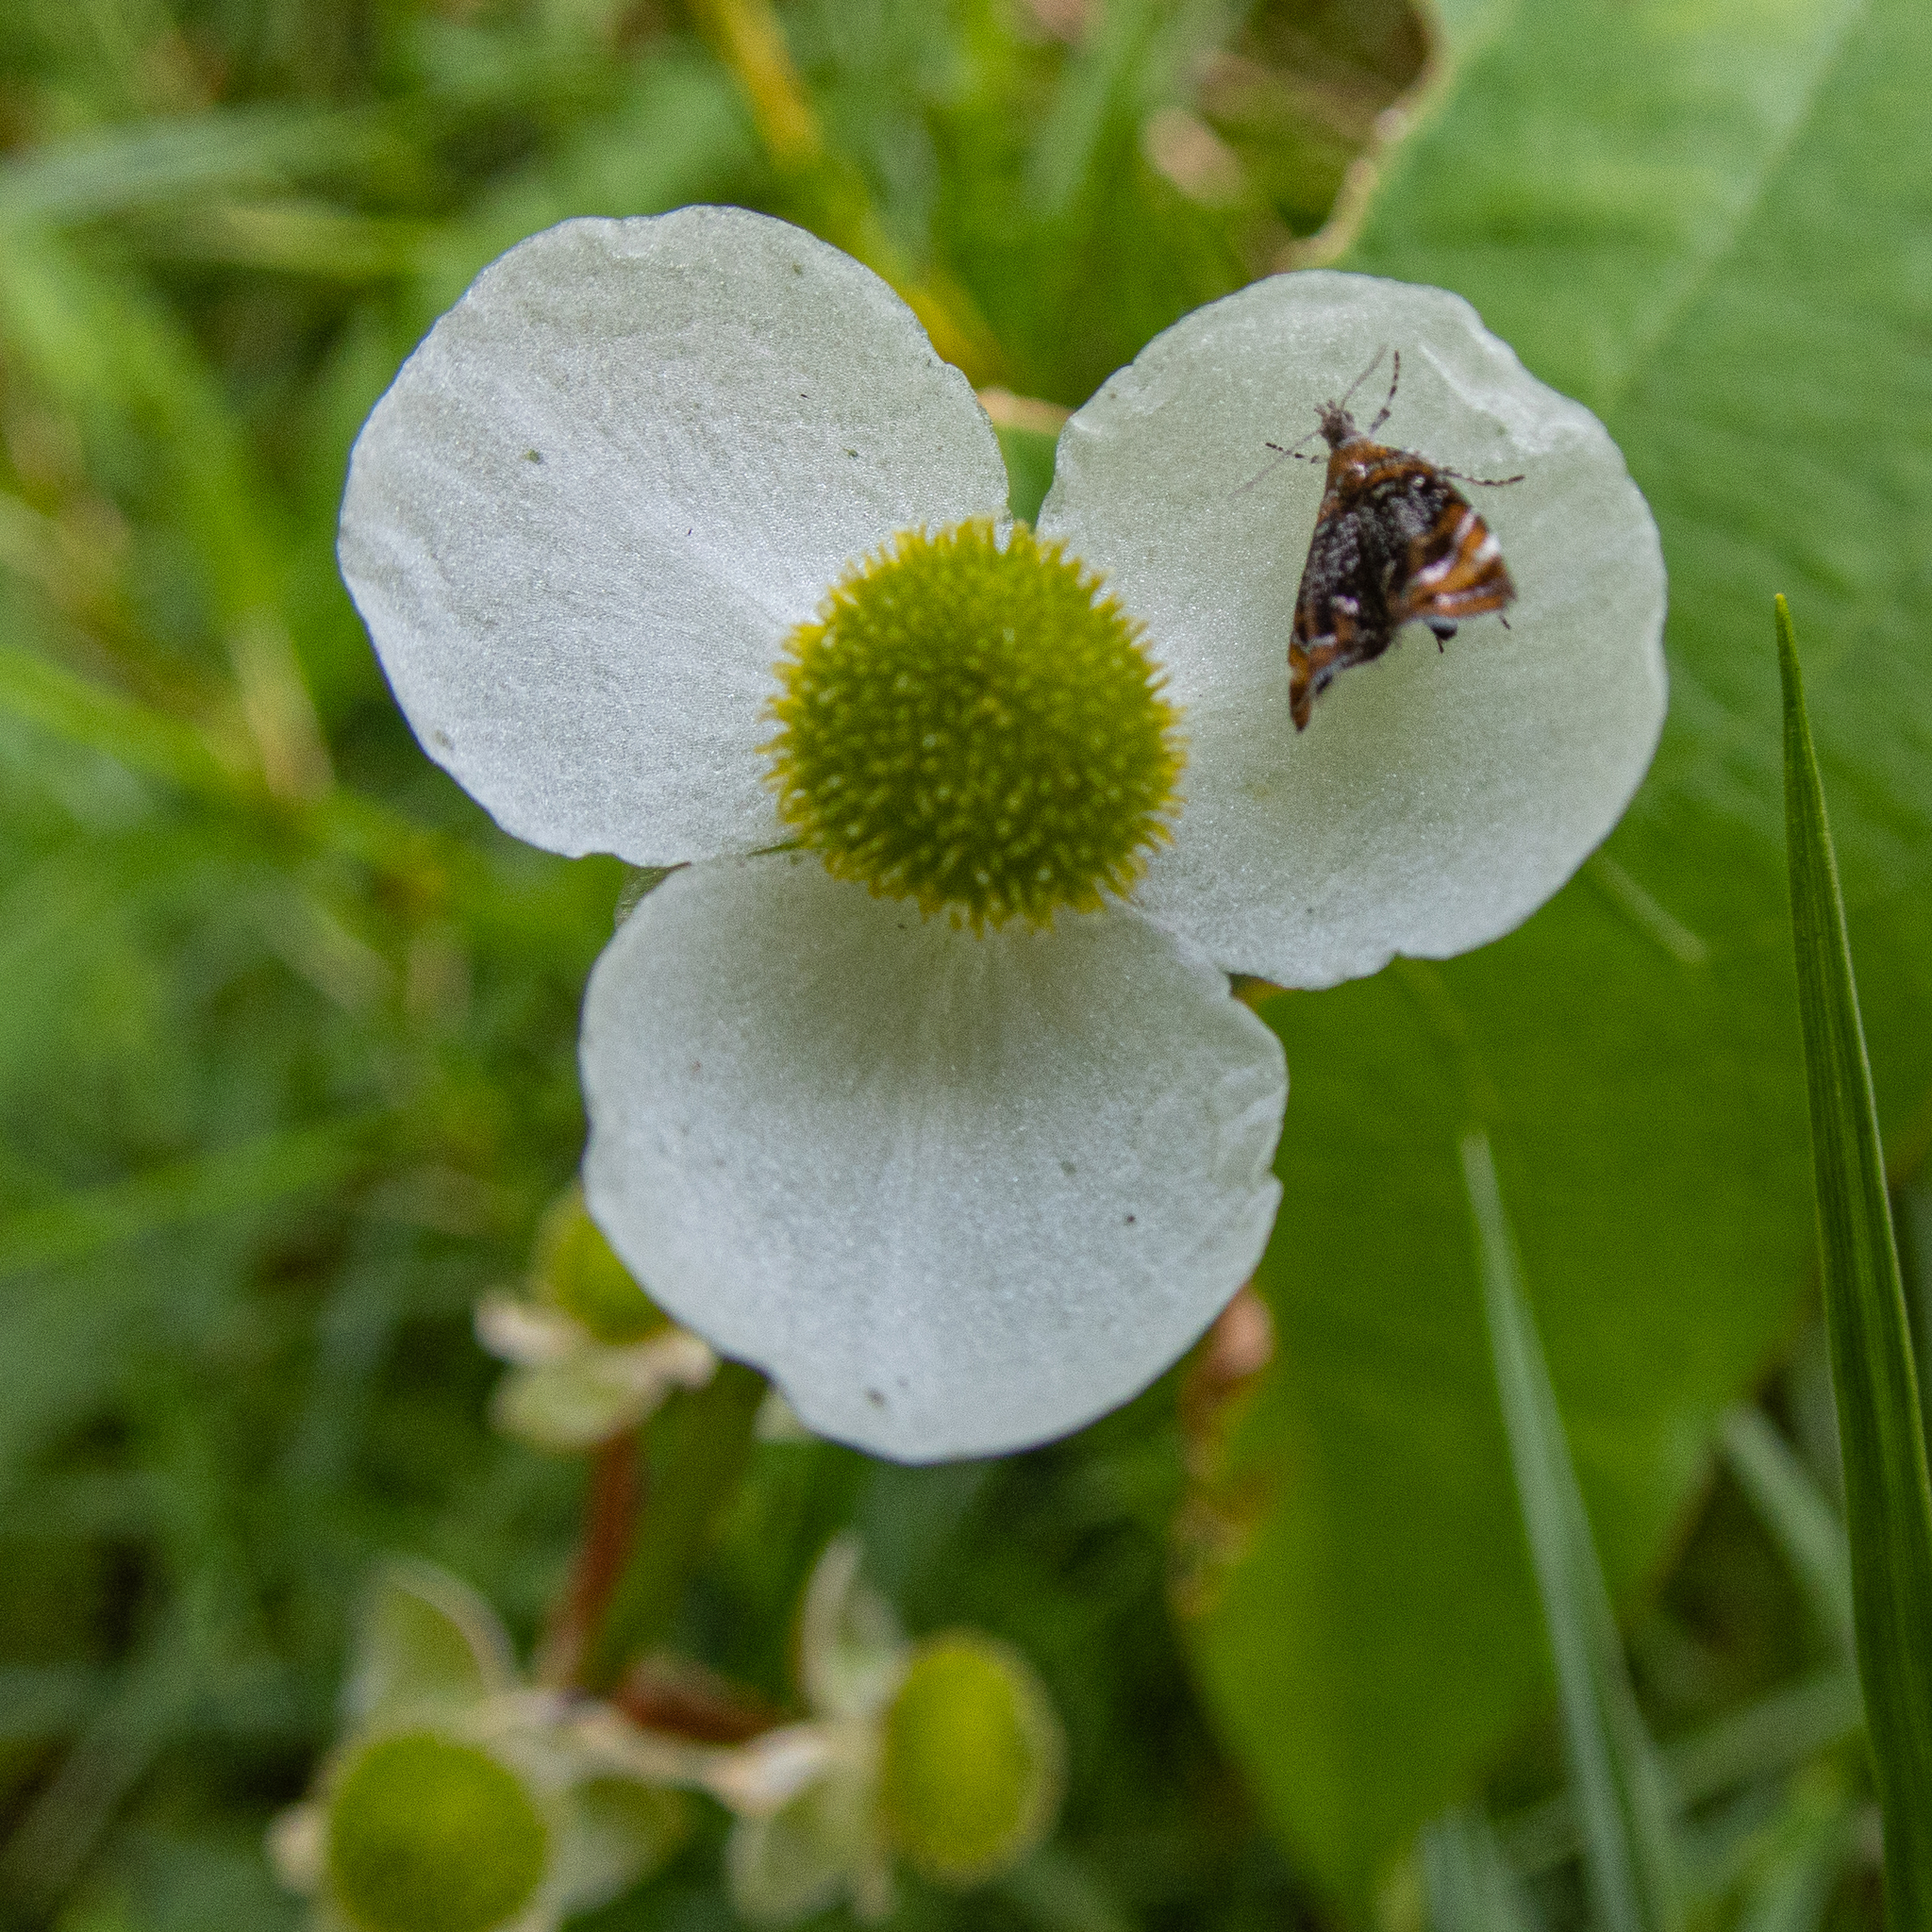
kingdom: Animalia
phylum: Arthropoda
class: Insecta
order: Lepidoptera
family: Choreutidae
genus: Prochoreutis
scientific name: Prochoreutis inflatella
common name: Skullcap skeletonizer moth
